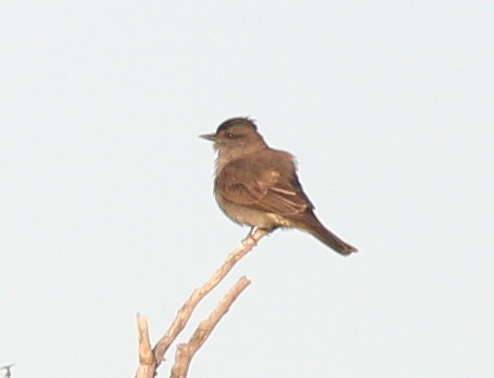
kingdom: Animalia
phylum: Chordata
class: Aves
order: Passeriformes
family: Tyrannidae
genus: Empidonomus
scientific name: Empidonomus aurantioatrocristatus
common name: Crowned slaty flycatcher
